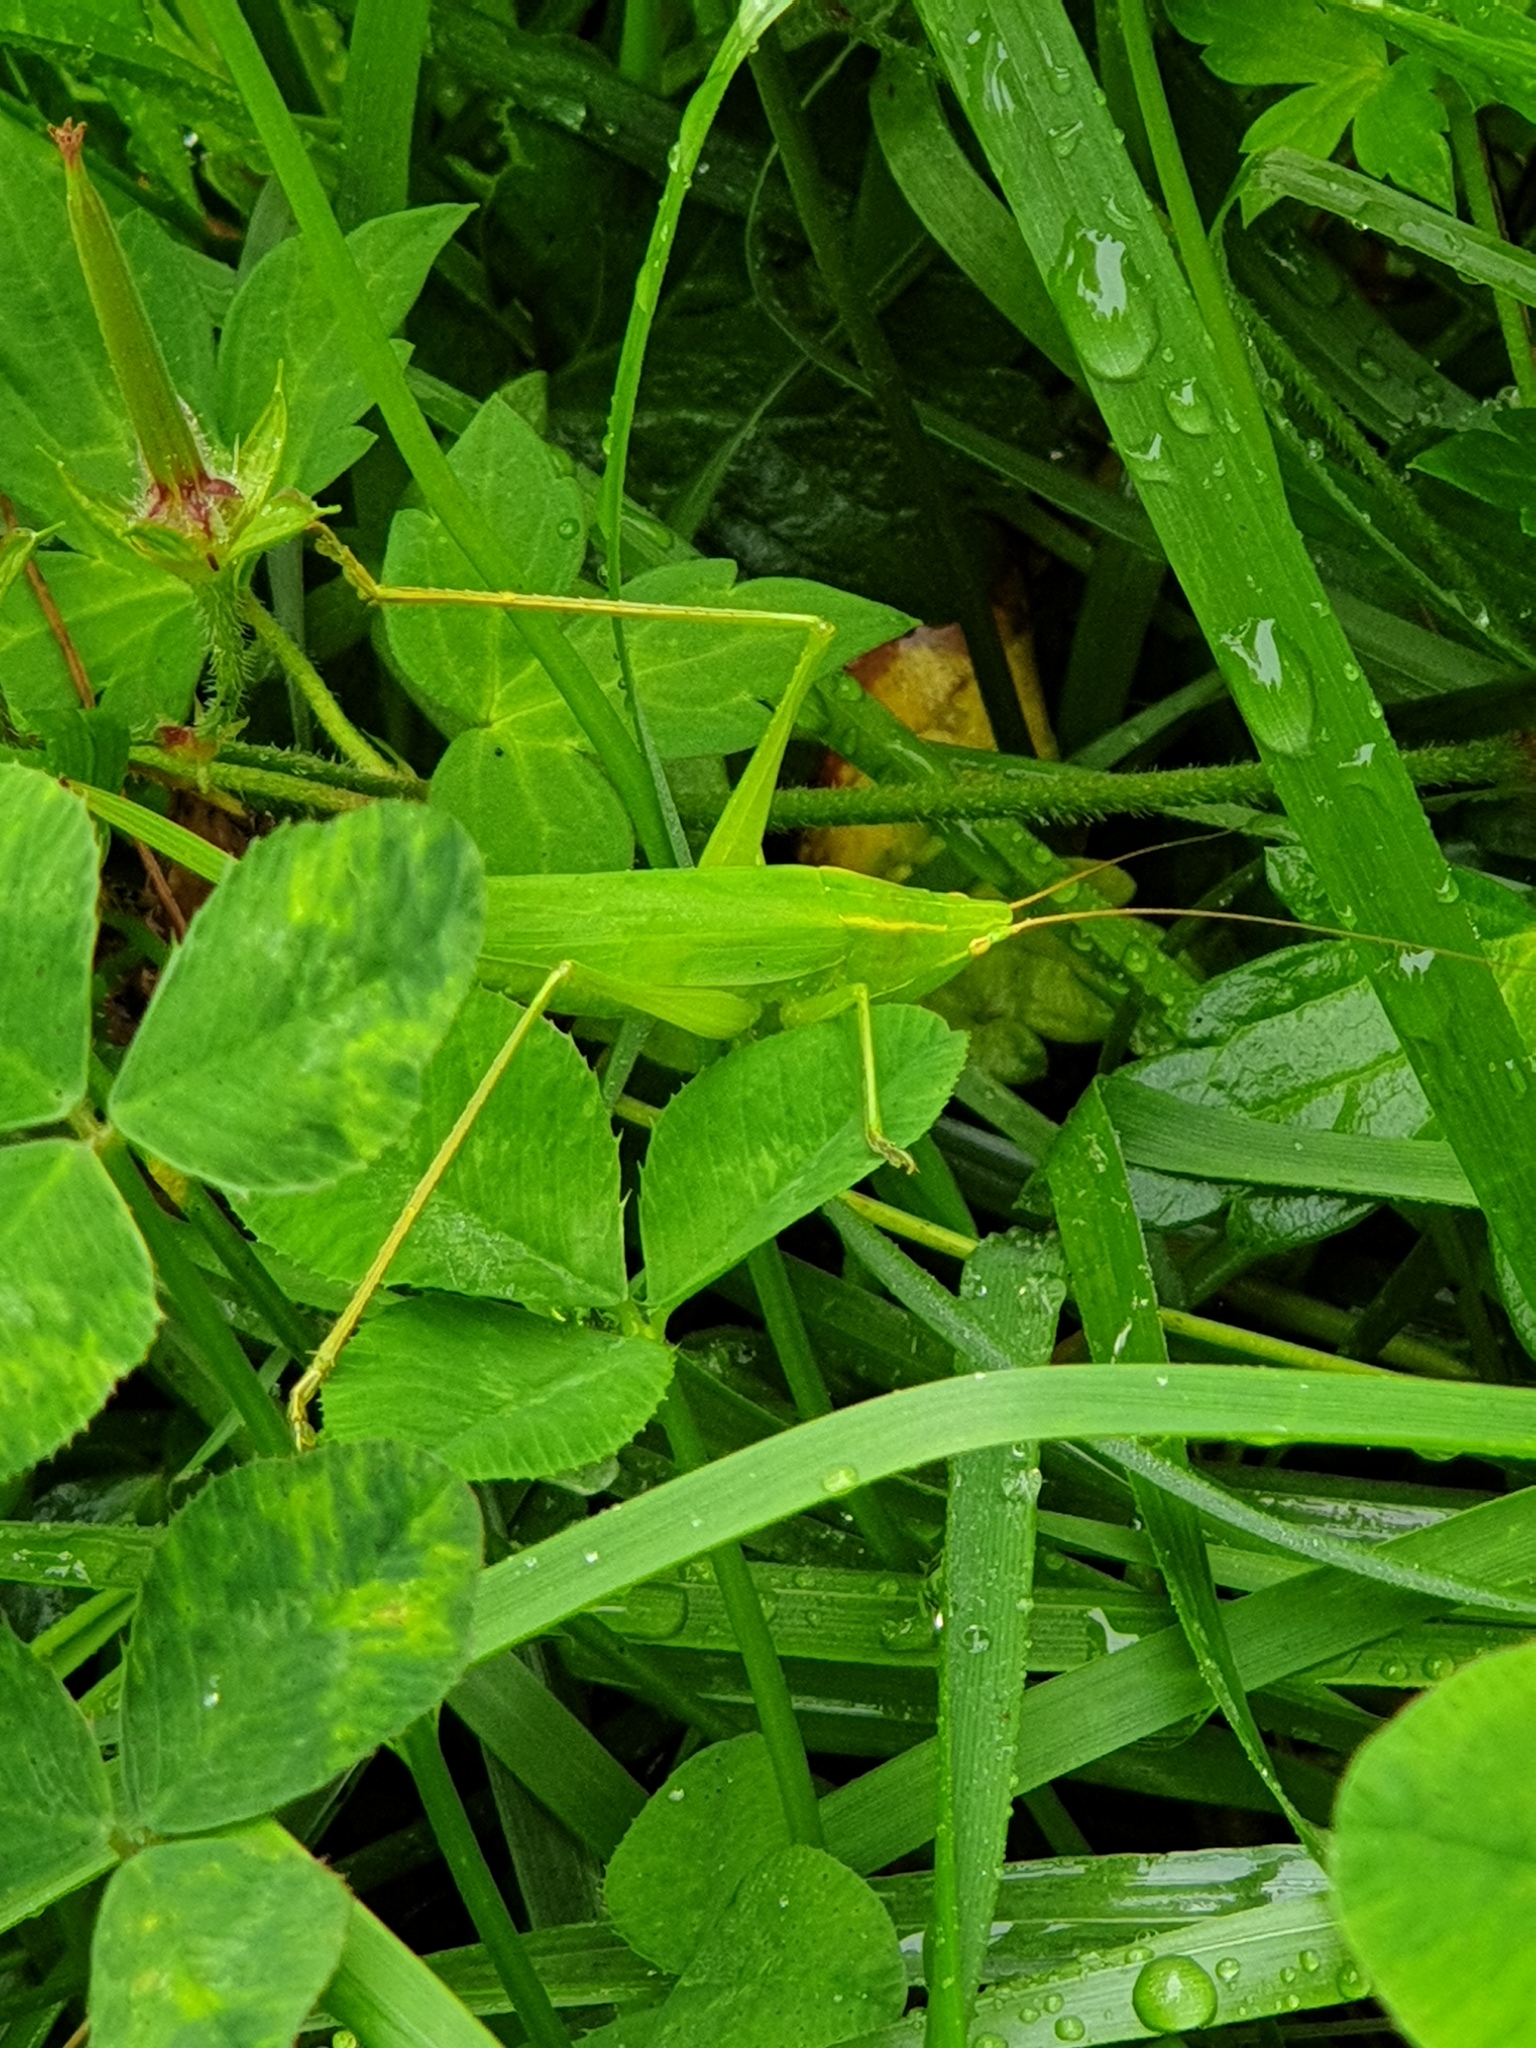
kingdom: Animalia
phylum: Arthropoda
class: Insecta
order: Orthoptera
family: Tettigoniidae
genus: Ruspolia
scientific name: Ruspolia dubia
